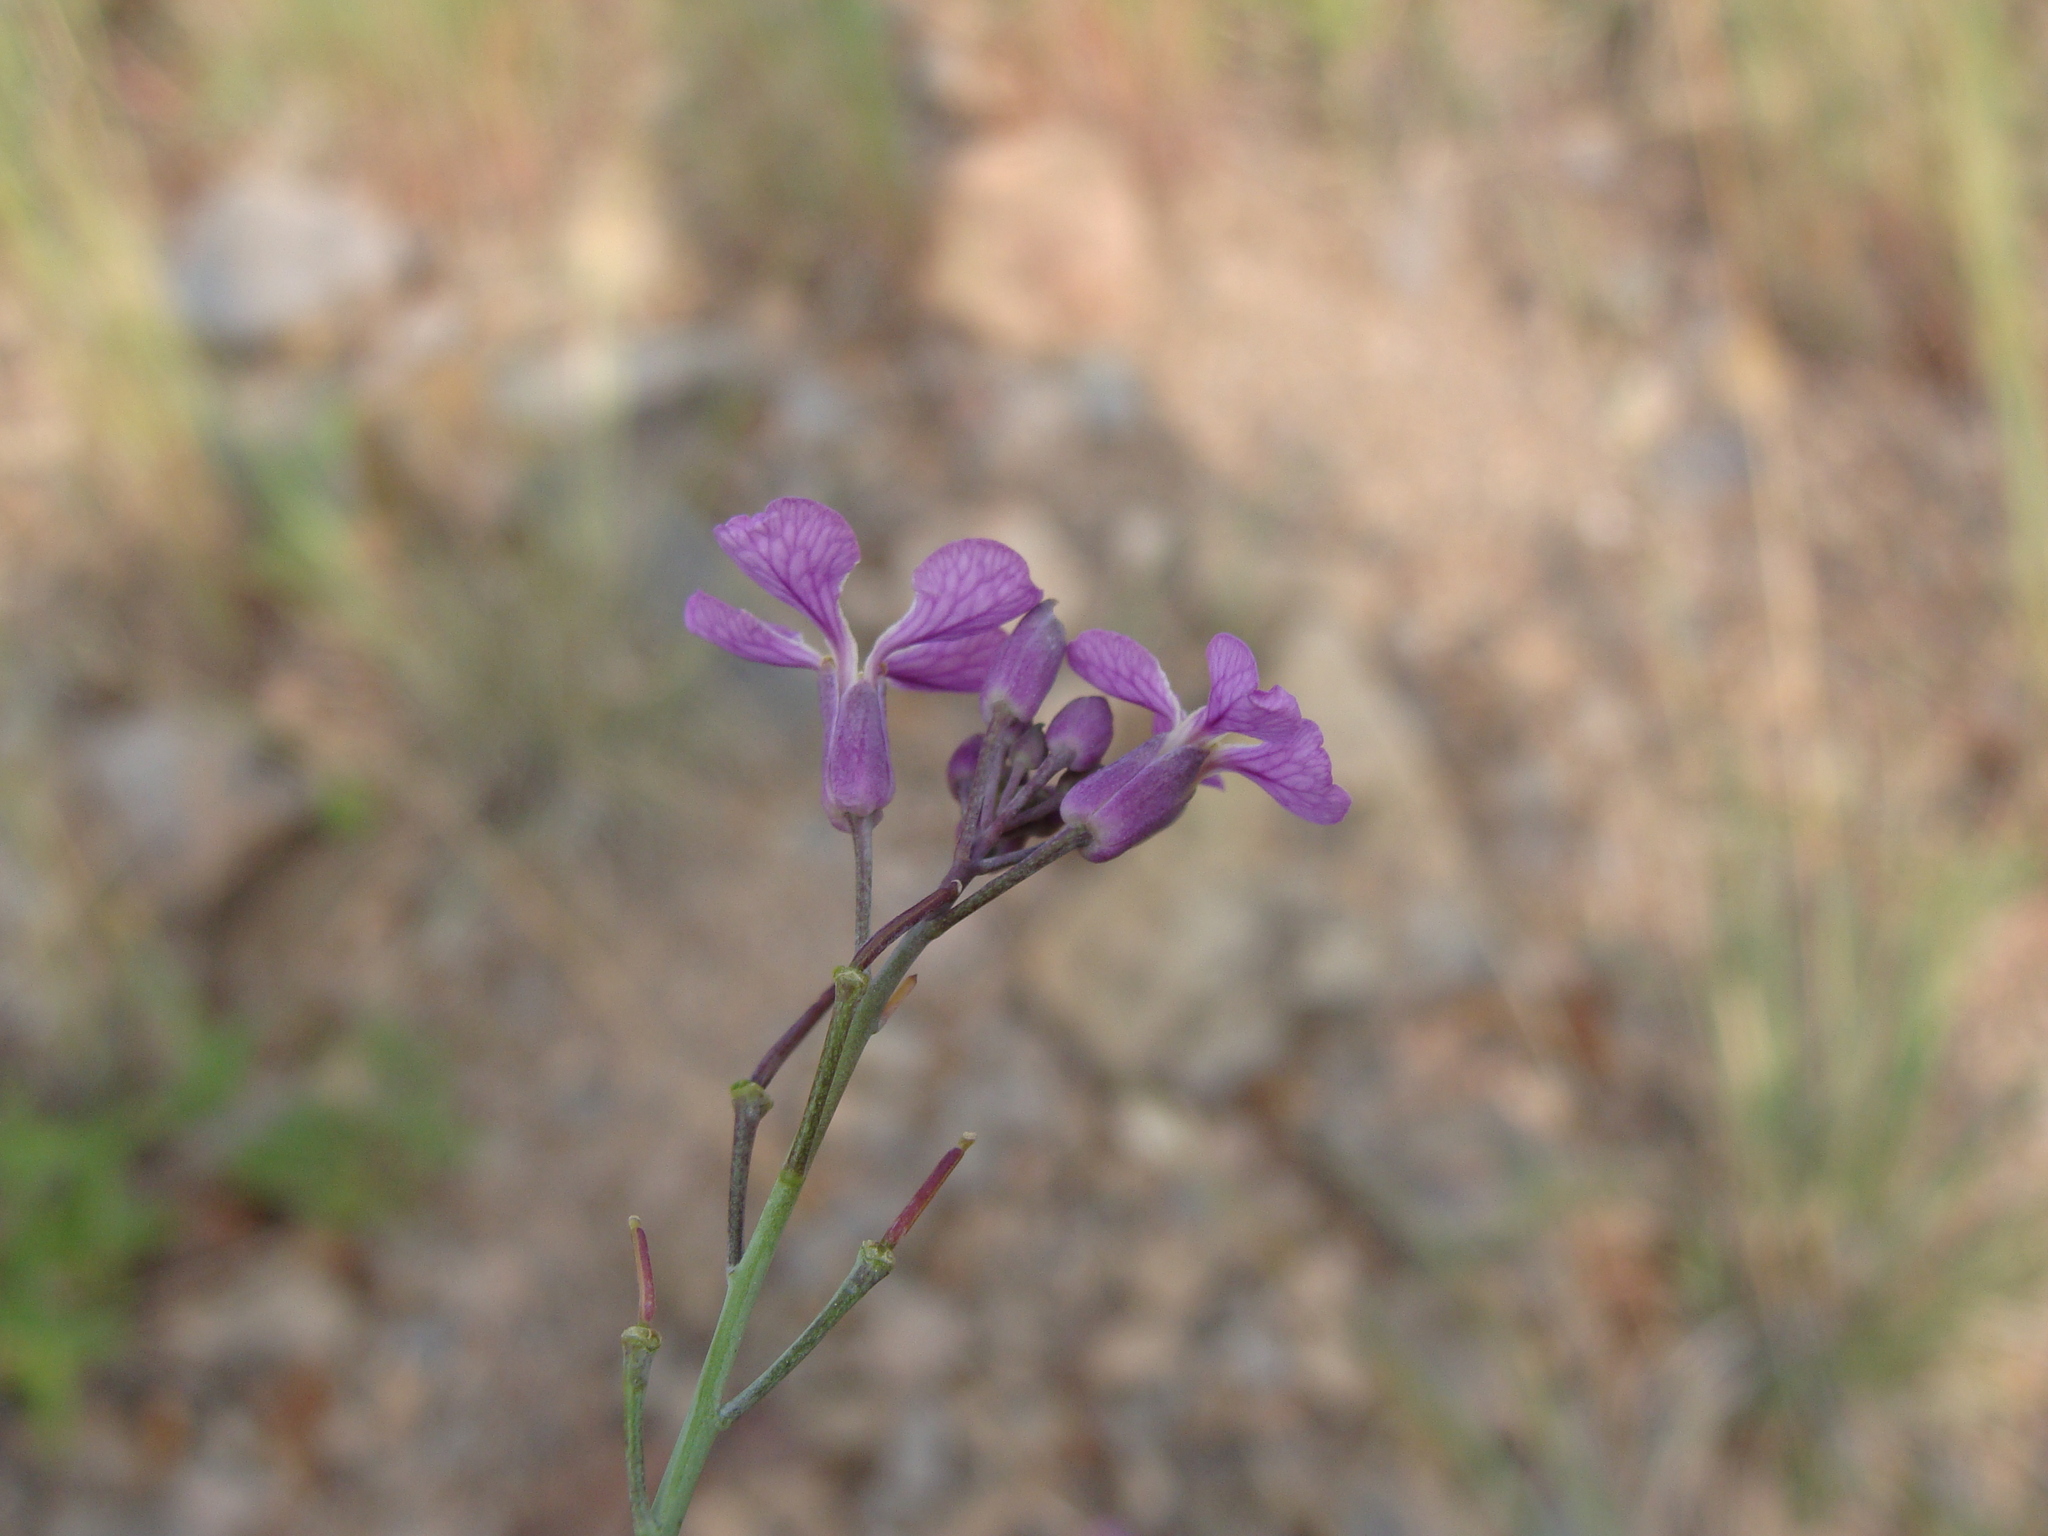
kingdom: Plantae
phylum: Tracheophyta
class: Magnoliopsida
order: Brassicales
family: Brassicaceae
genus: Hesperidanthus
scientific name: Hesperidanthus linearifolius
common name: Slim-leaf plains mustard
